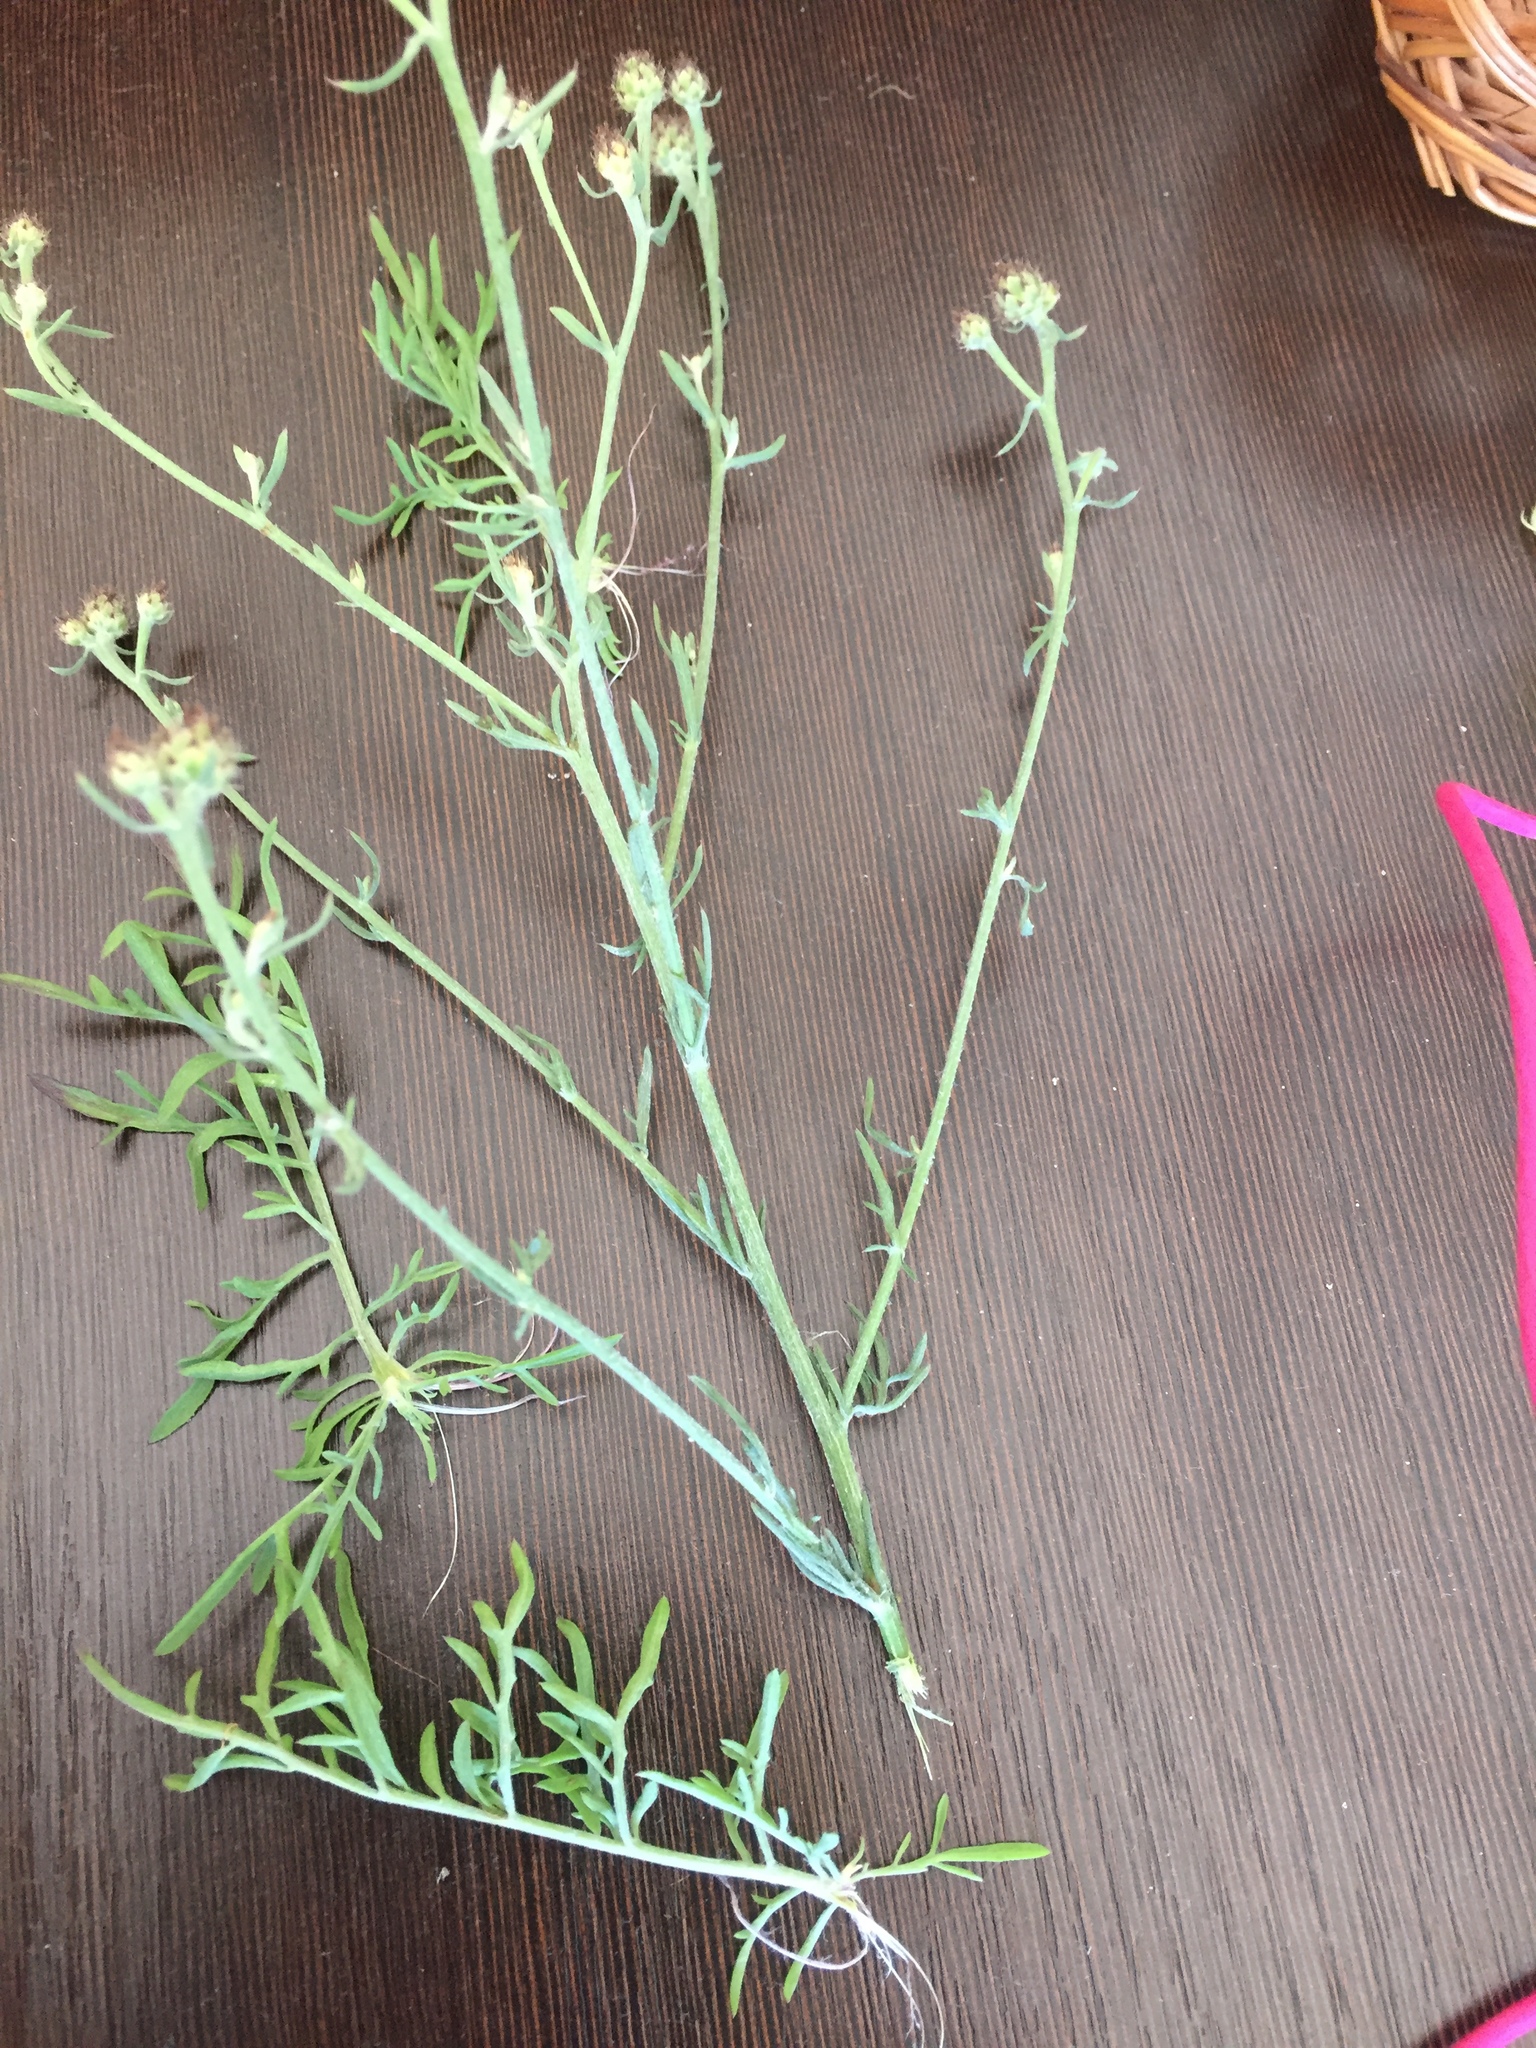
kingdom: Plantae
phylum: Tracheophyta
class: Magnoliopsida
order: Asterales
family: Asteraceae
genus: Centaurea
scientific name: Centaurea stoebe
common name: Spotted knapweed
